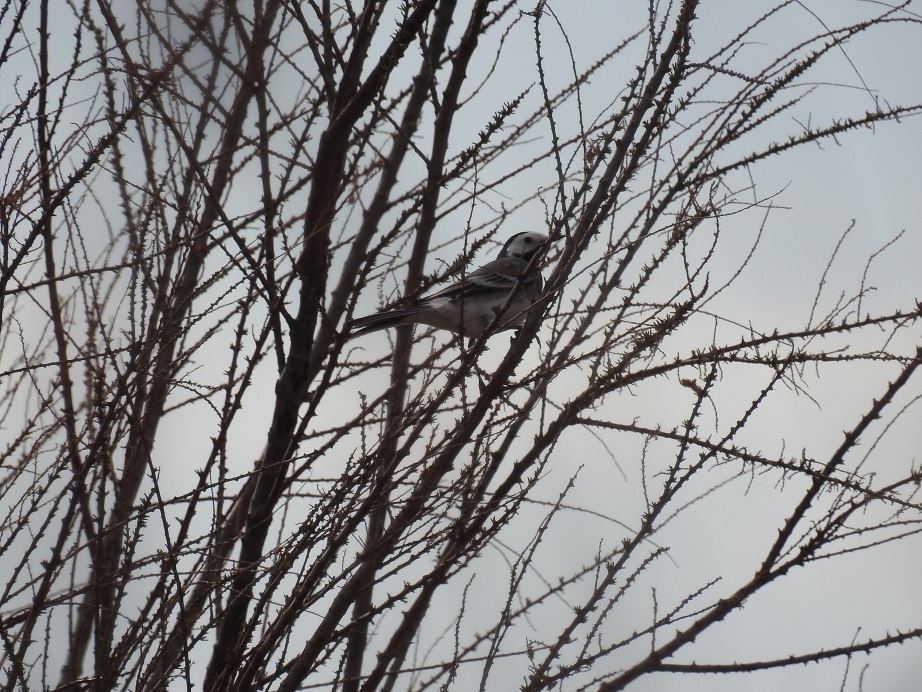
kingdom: Animalia
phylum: Chordata
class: Aves
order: Passeriformes
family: Motacillidae
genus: Motacilla
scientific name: Motacilla alba
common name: White wagtail
